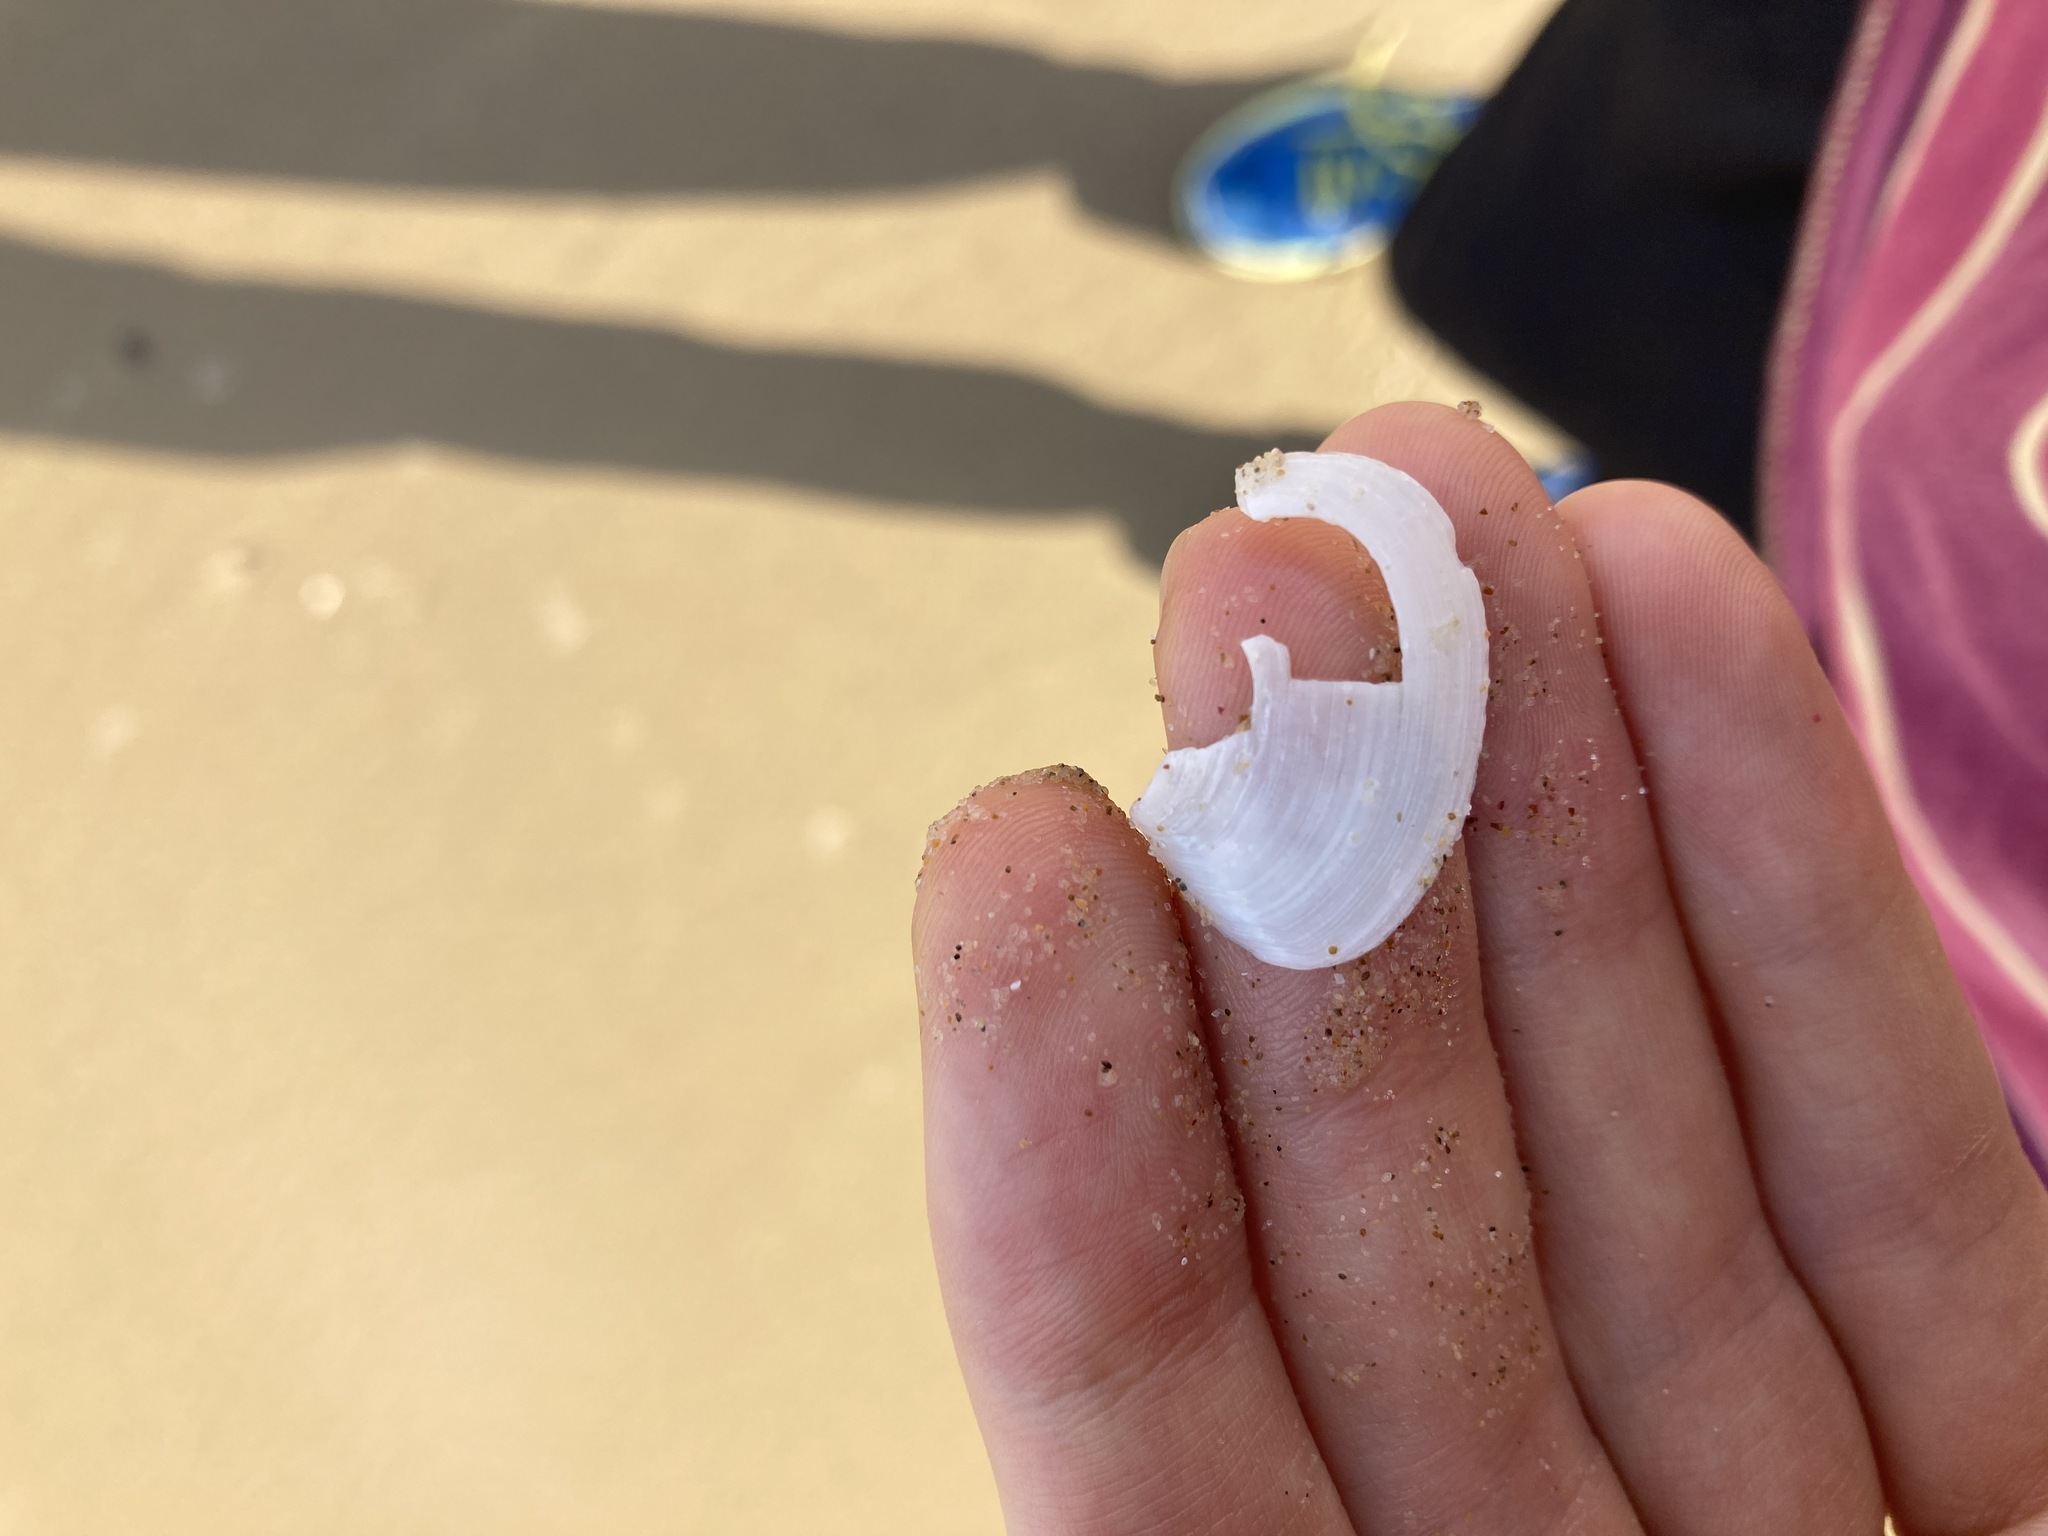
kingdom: Animalia
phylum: Mollusca
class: Bivalvia
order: Cardiida
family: Tellinidae
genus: Macomona
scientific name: Macomona deltoidalis
